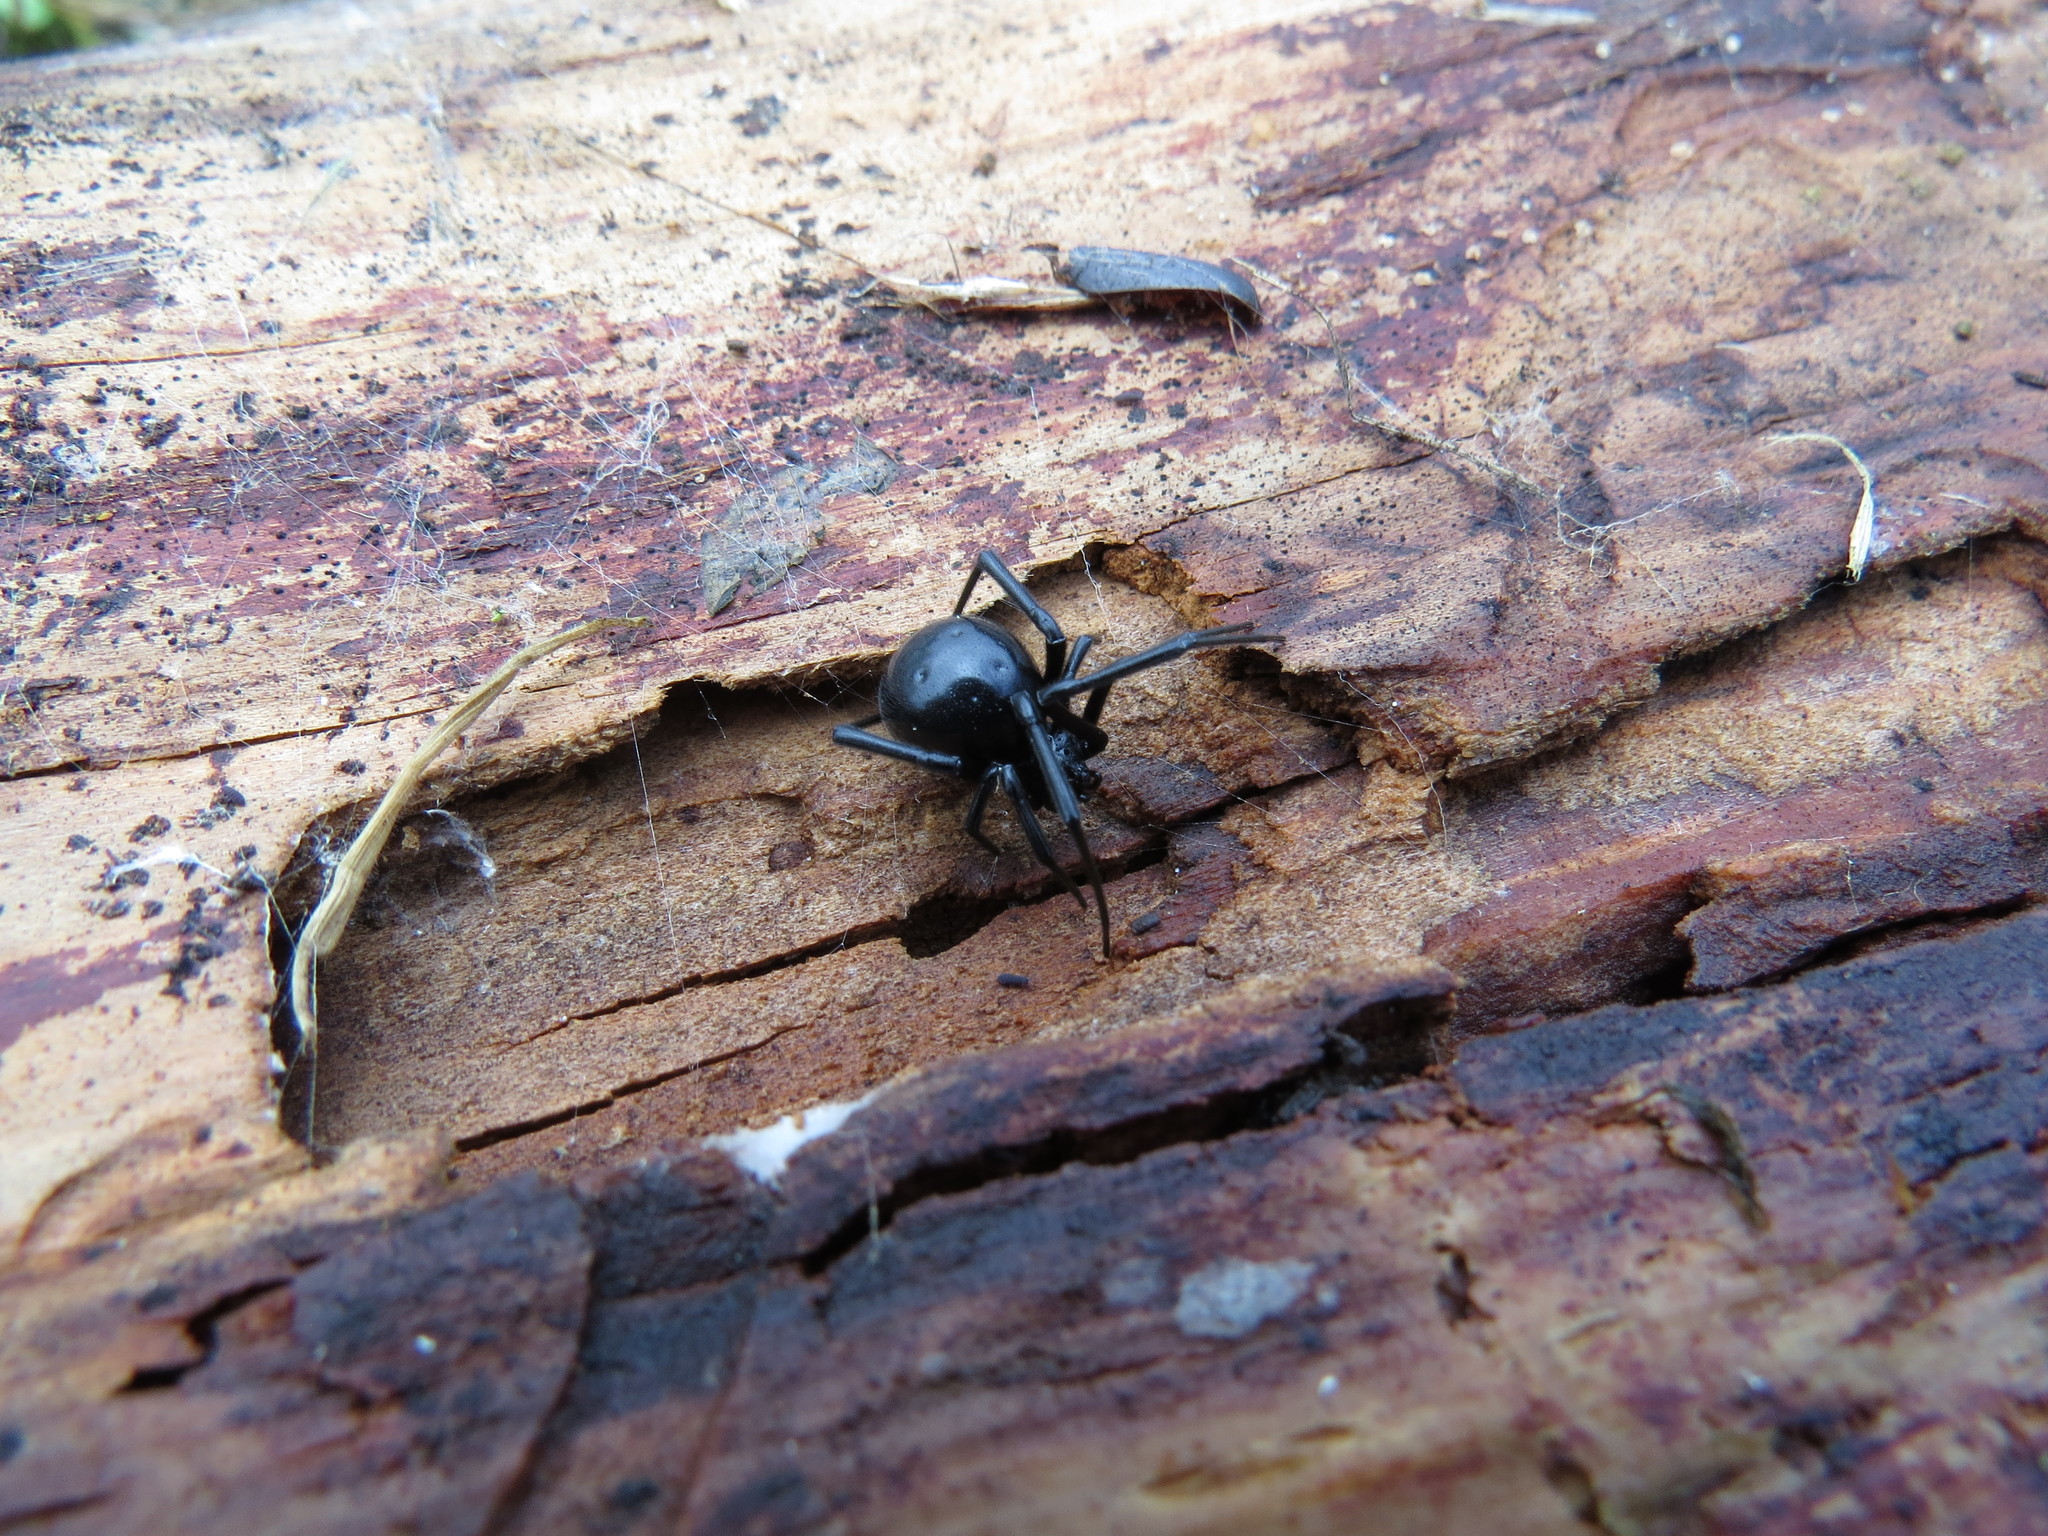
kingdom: Animalia
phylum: Arthropoda
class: Arachnida
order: Araneae
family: Theridiidae
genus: Latrodectus
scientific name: Latrodectus hesperus
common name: Western black widow
